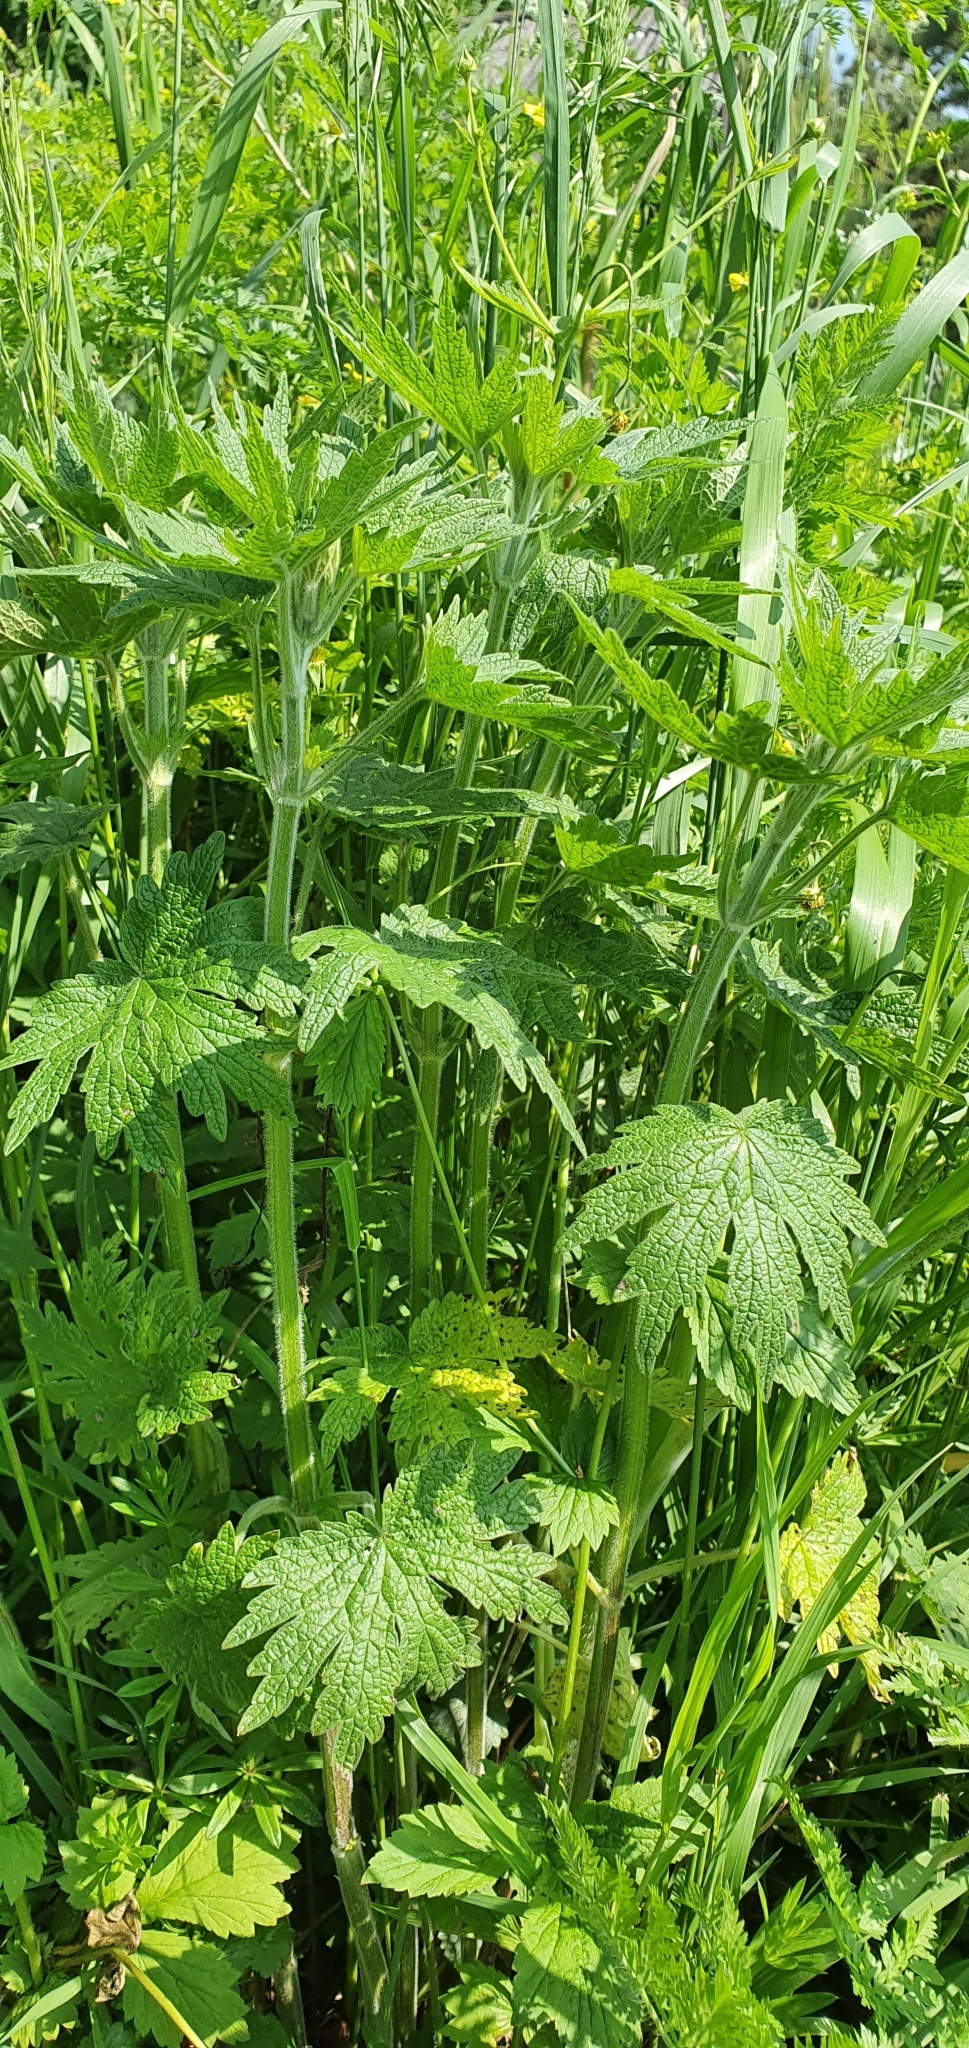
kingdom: Plantae
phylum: Tracheophyta
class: Magnoliopsida
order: Lamiales
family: Lamiaceae
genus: Leonurus
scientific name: Leonurus quinquelobatus
